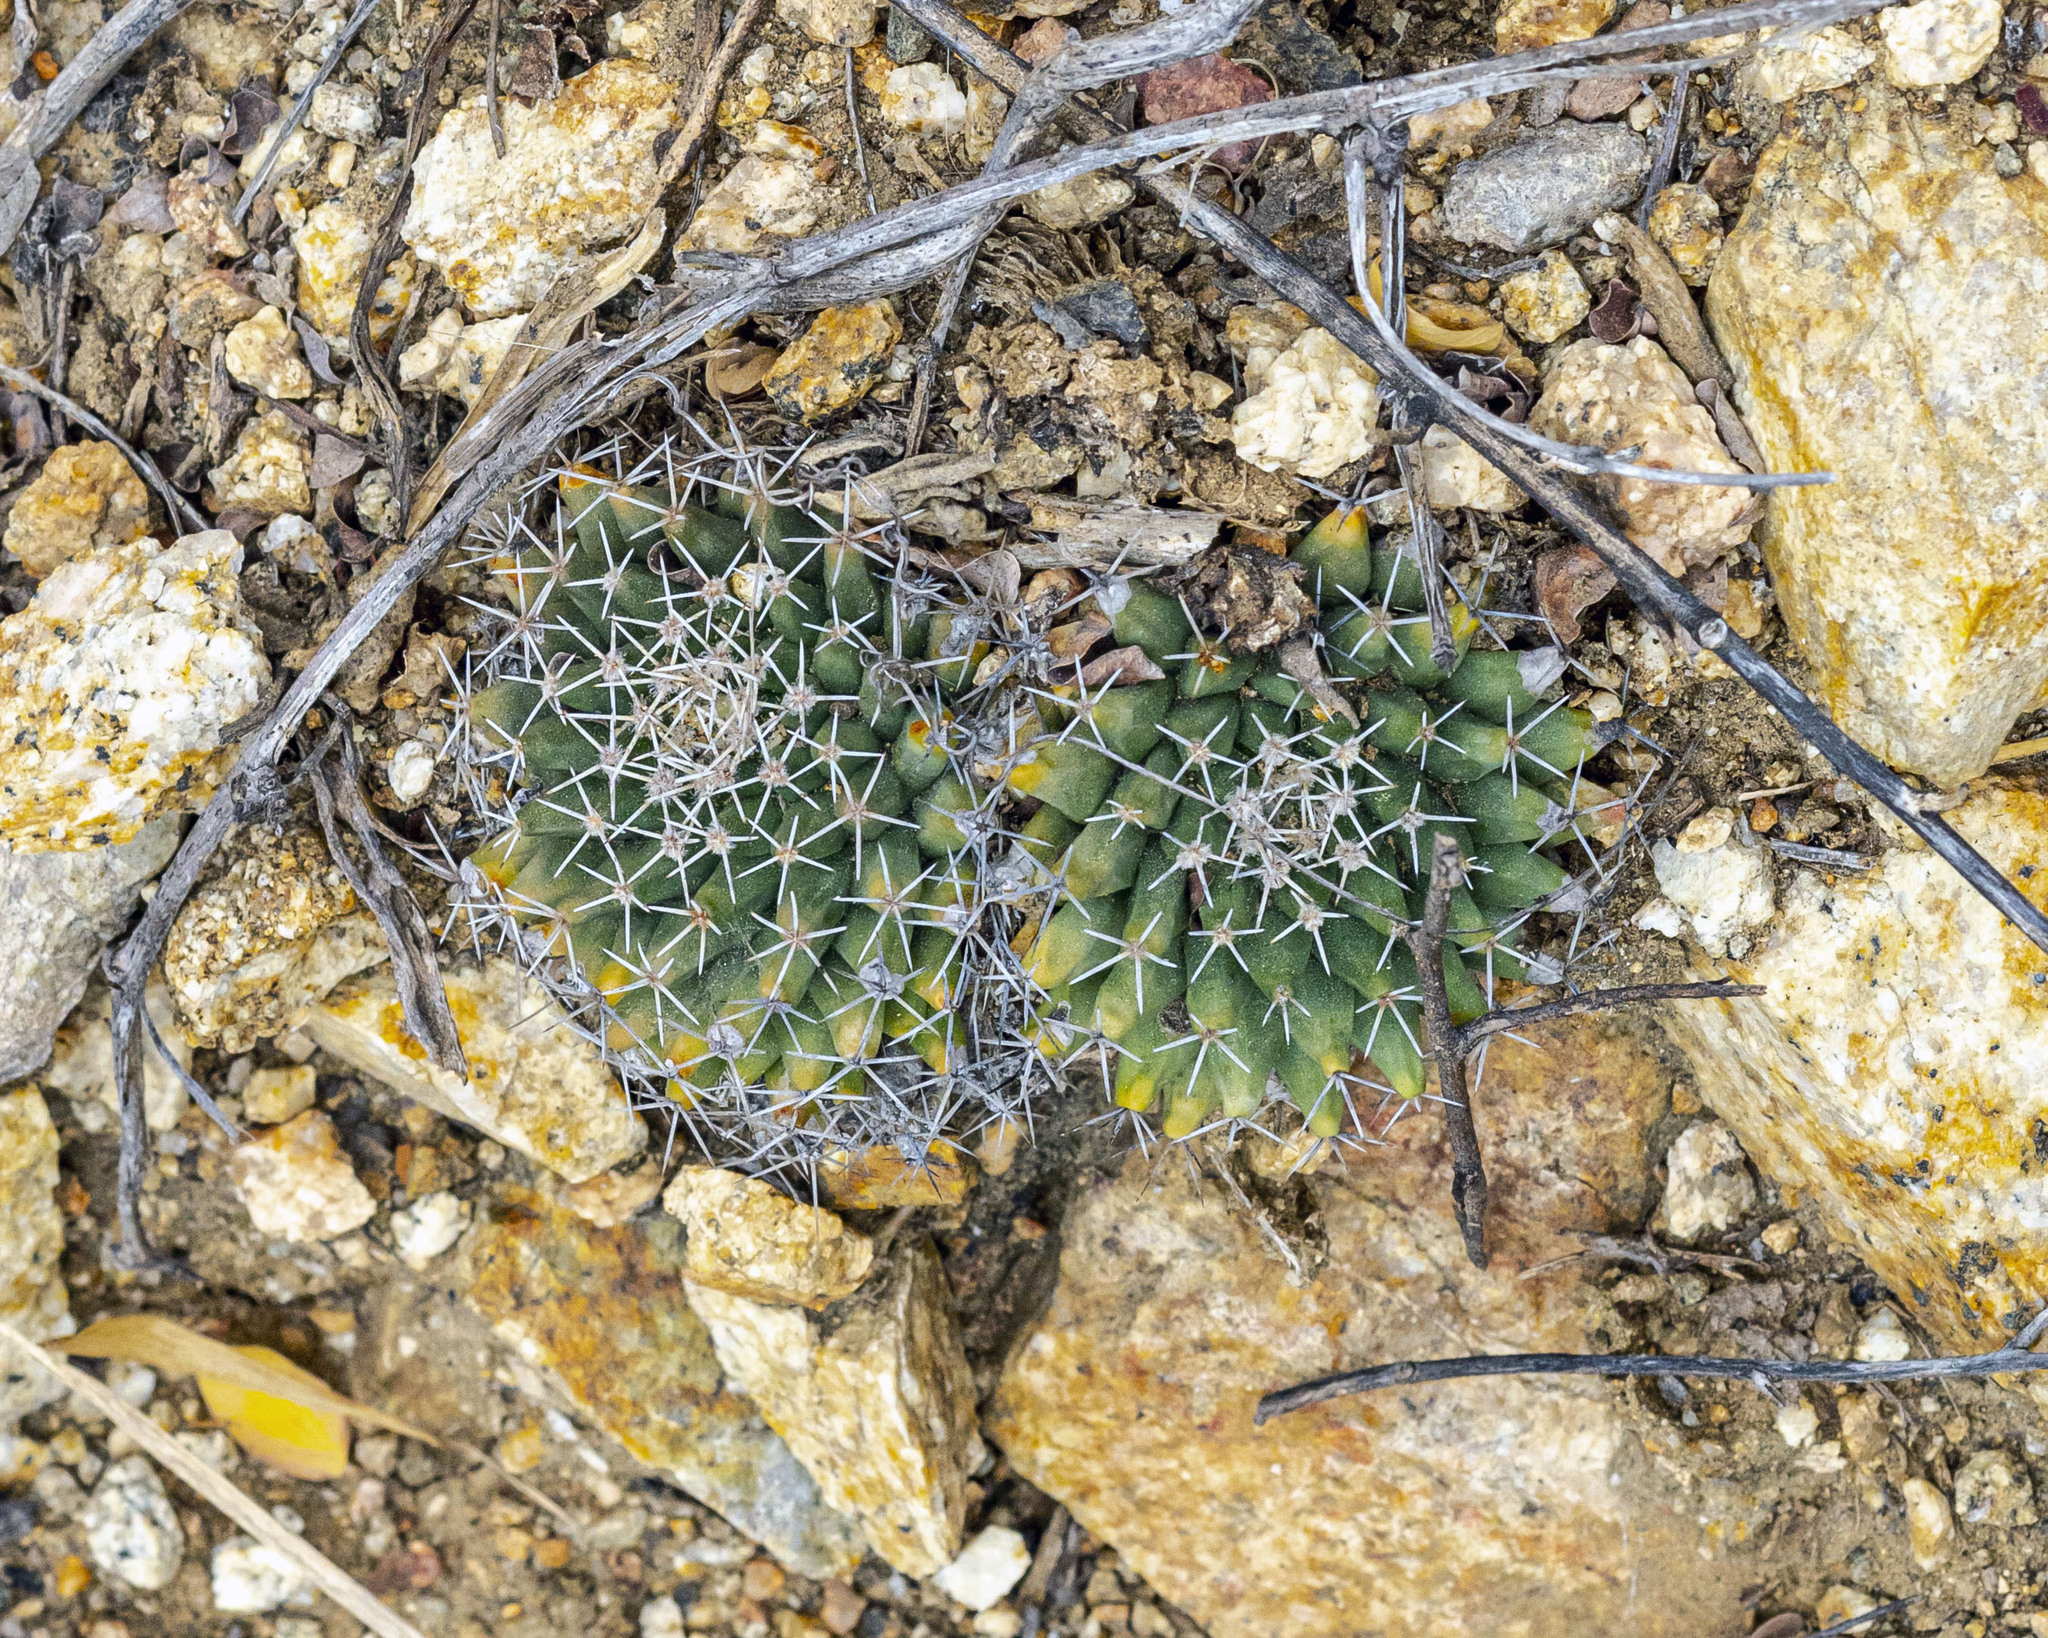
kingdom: Plantae
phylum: Tracheophyta
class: Magnoliopsida
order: Caryophyllales
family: Cactaceae
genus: Mammillaria
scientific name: Mammillaria peninsularis
